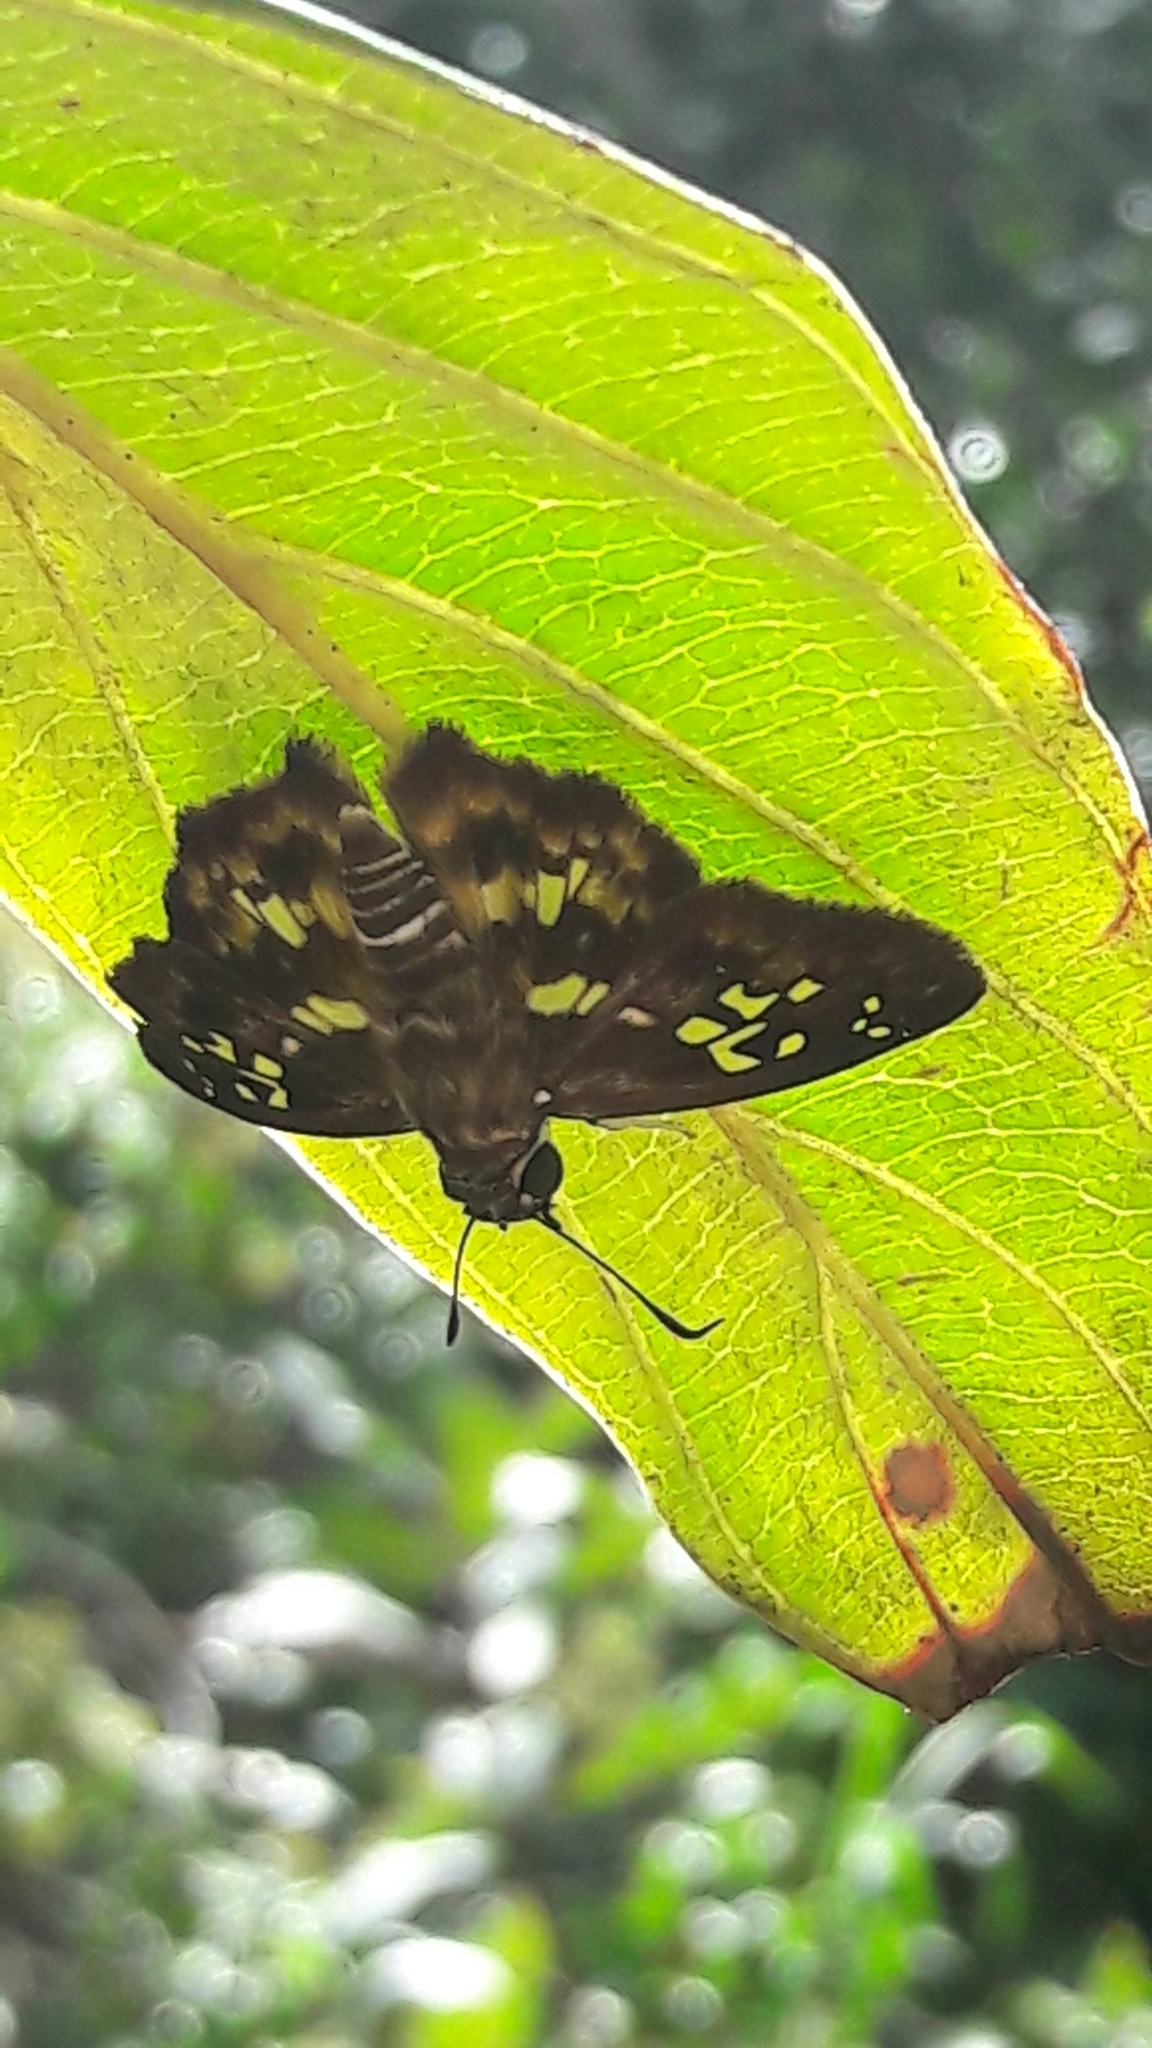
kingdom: Animalia
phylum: Arthropoda
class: Insecta
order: Lepidoptera
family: Hesperiidae
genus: Udranomia
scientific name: Udranomia kikkawai
